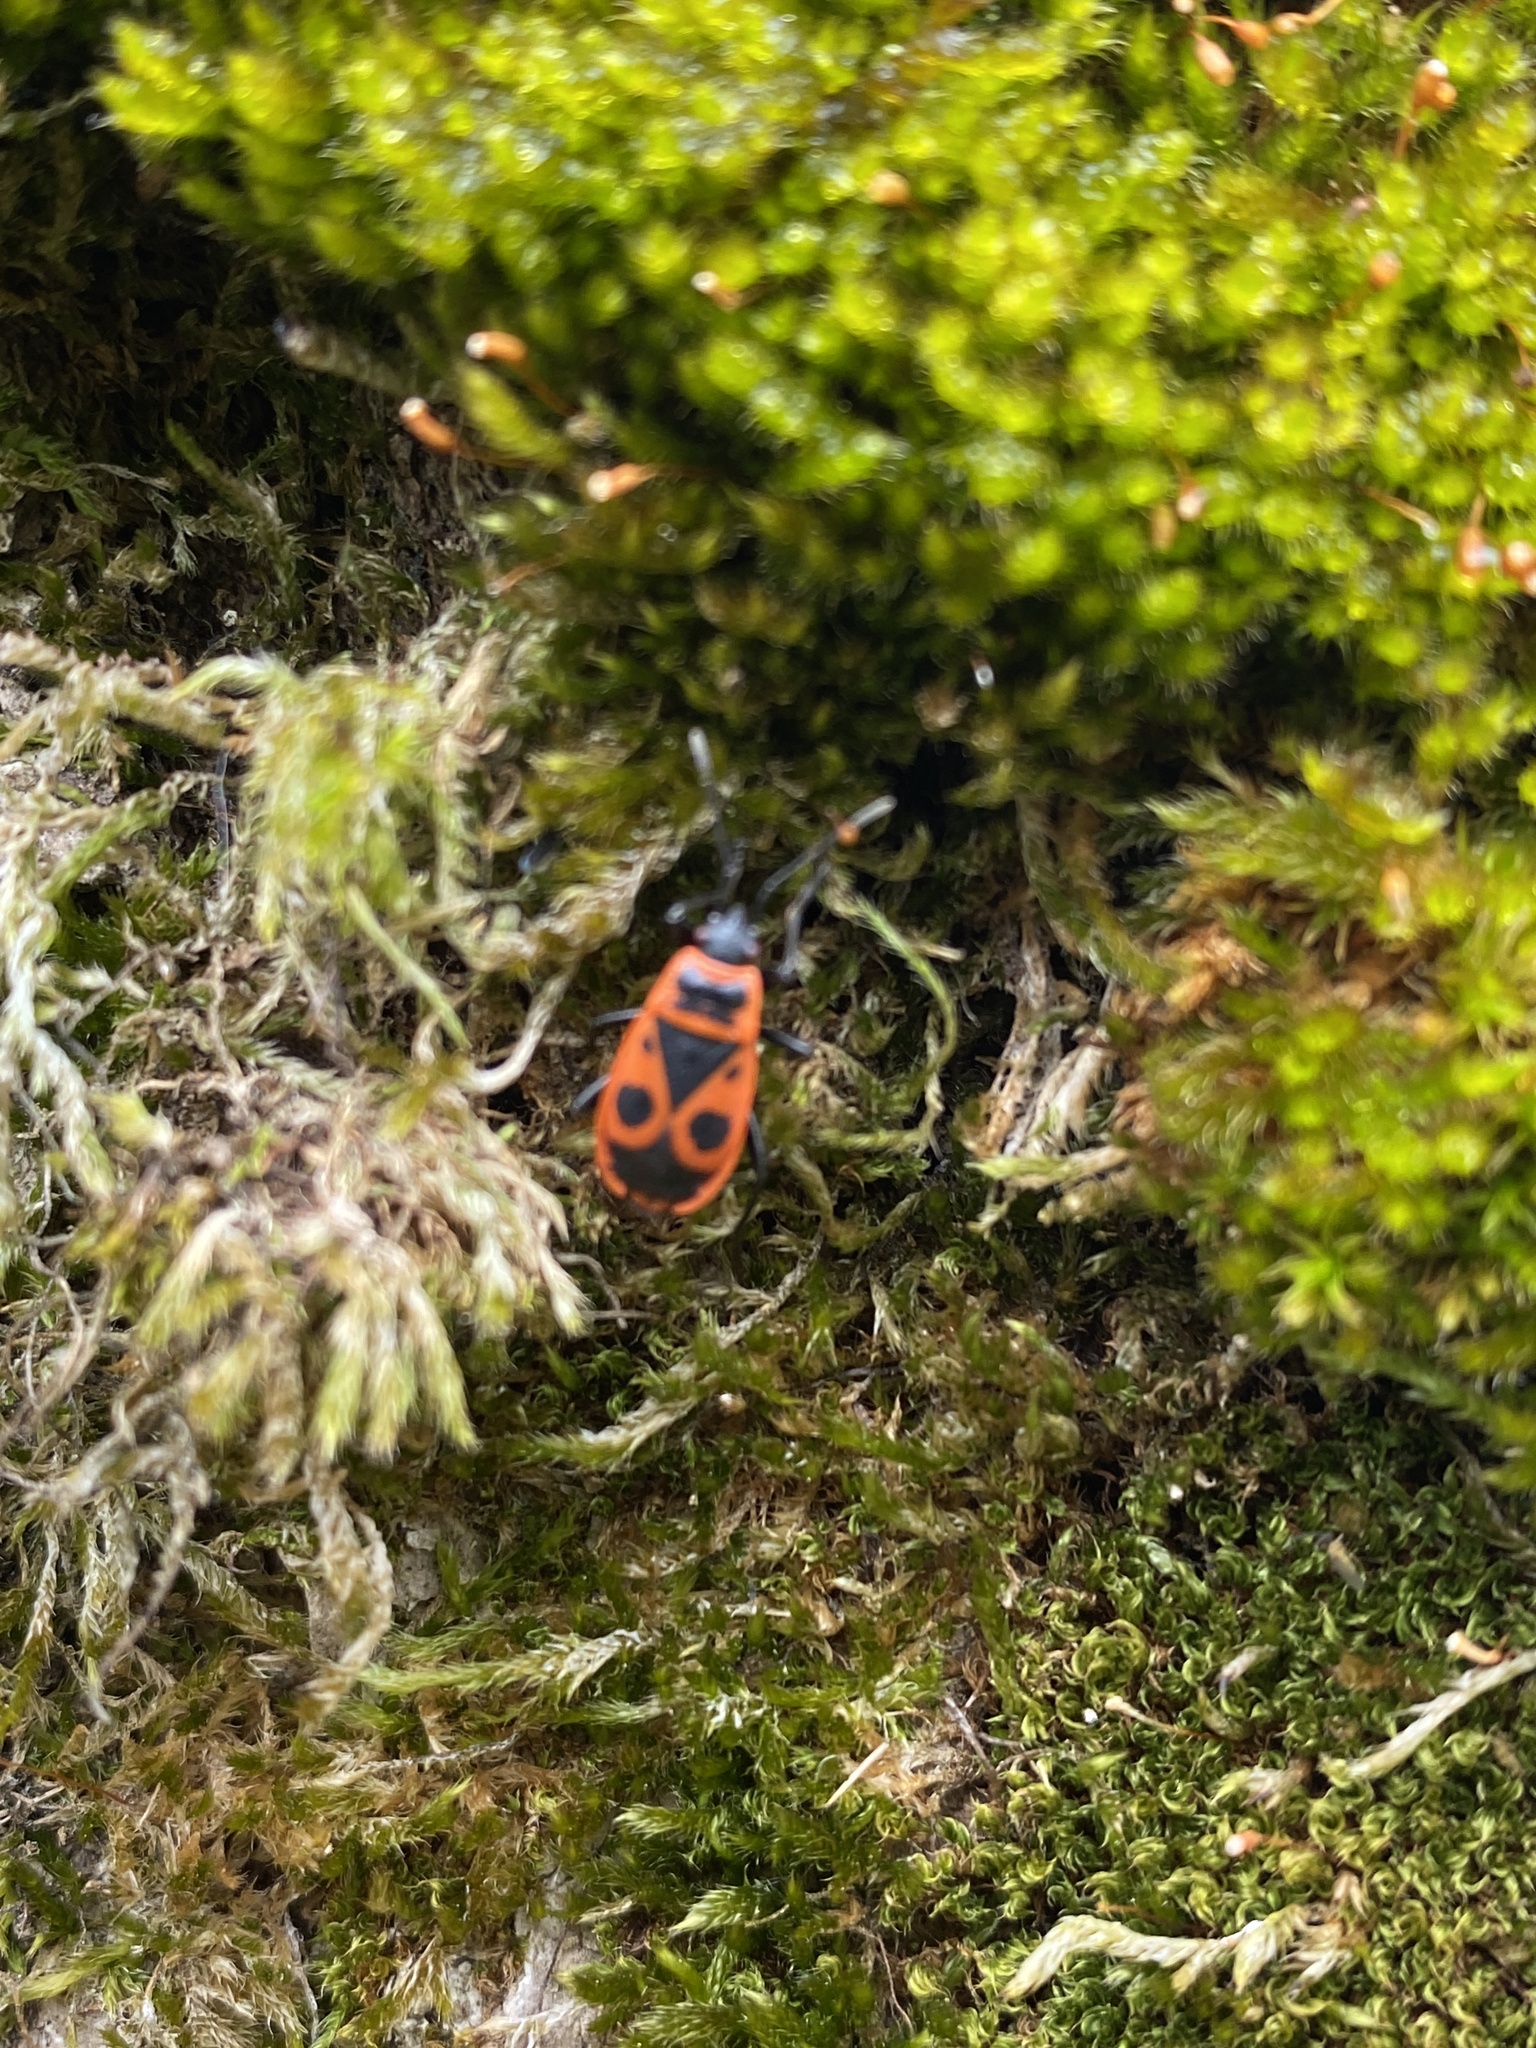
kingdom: Animalia
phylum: Arthropoda
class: Insecta
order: Hemiptera
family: Pyrrhocoridae
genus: Pyrrhocoris
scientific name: Pyrrhocoris apterus
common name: Firebug
